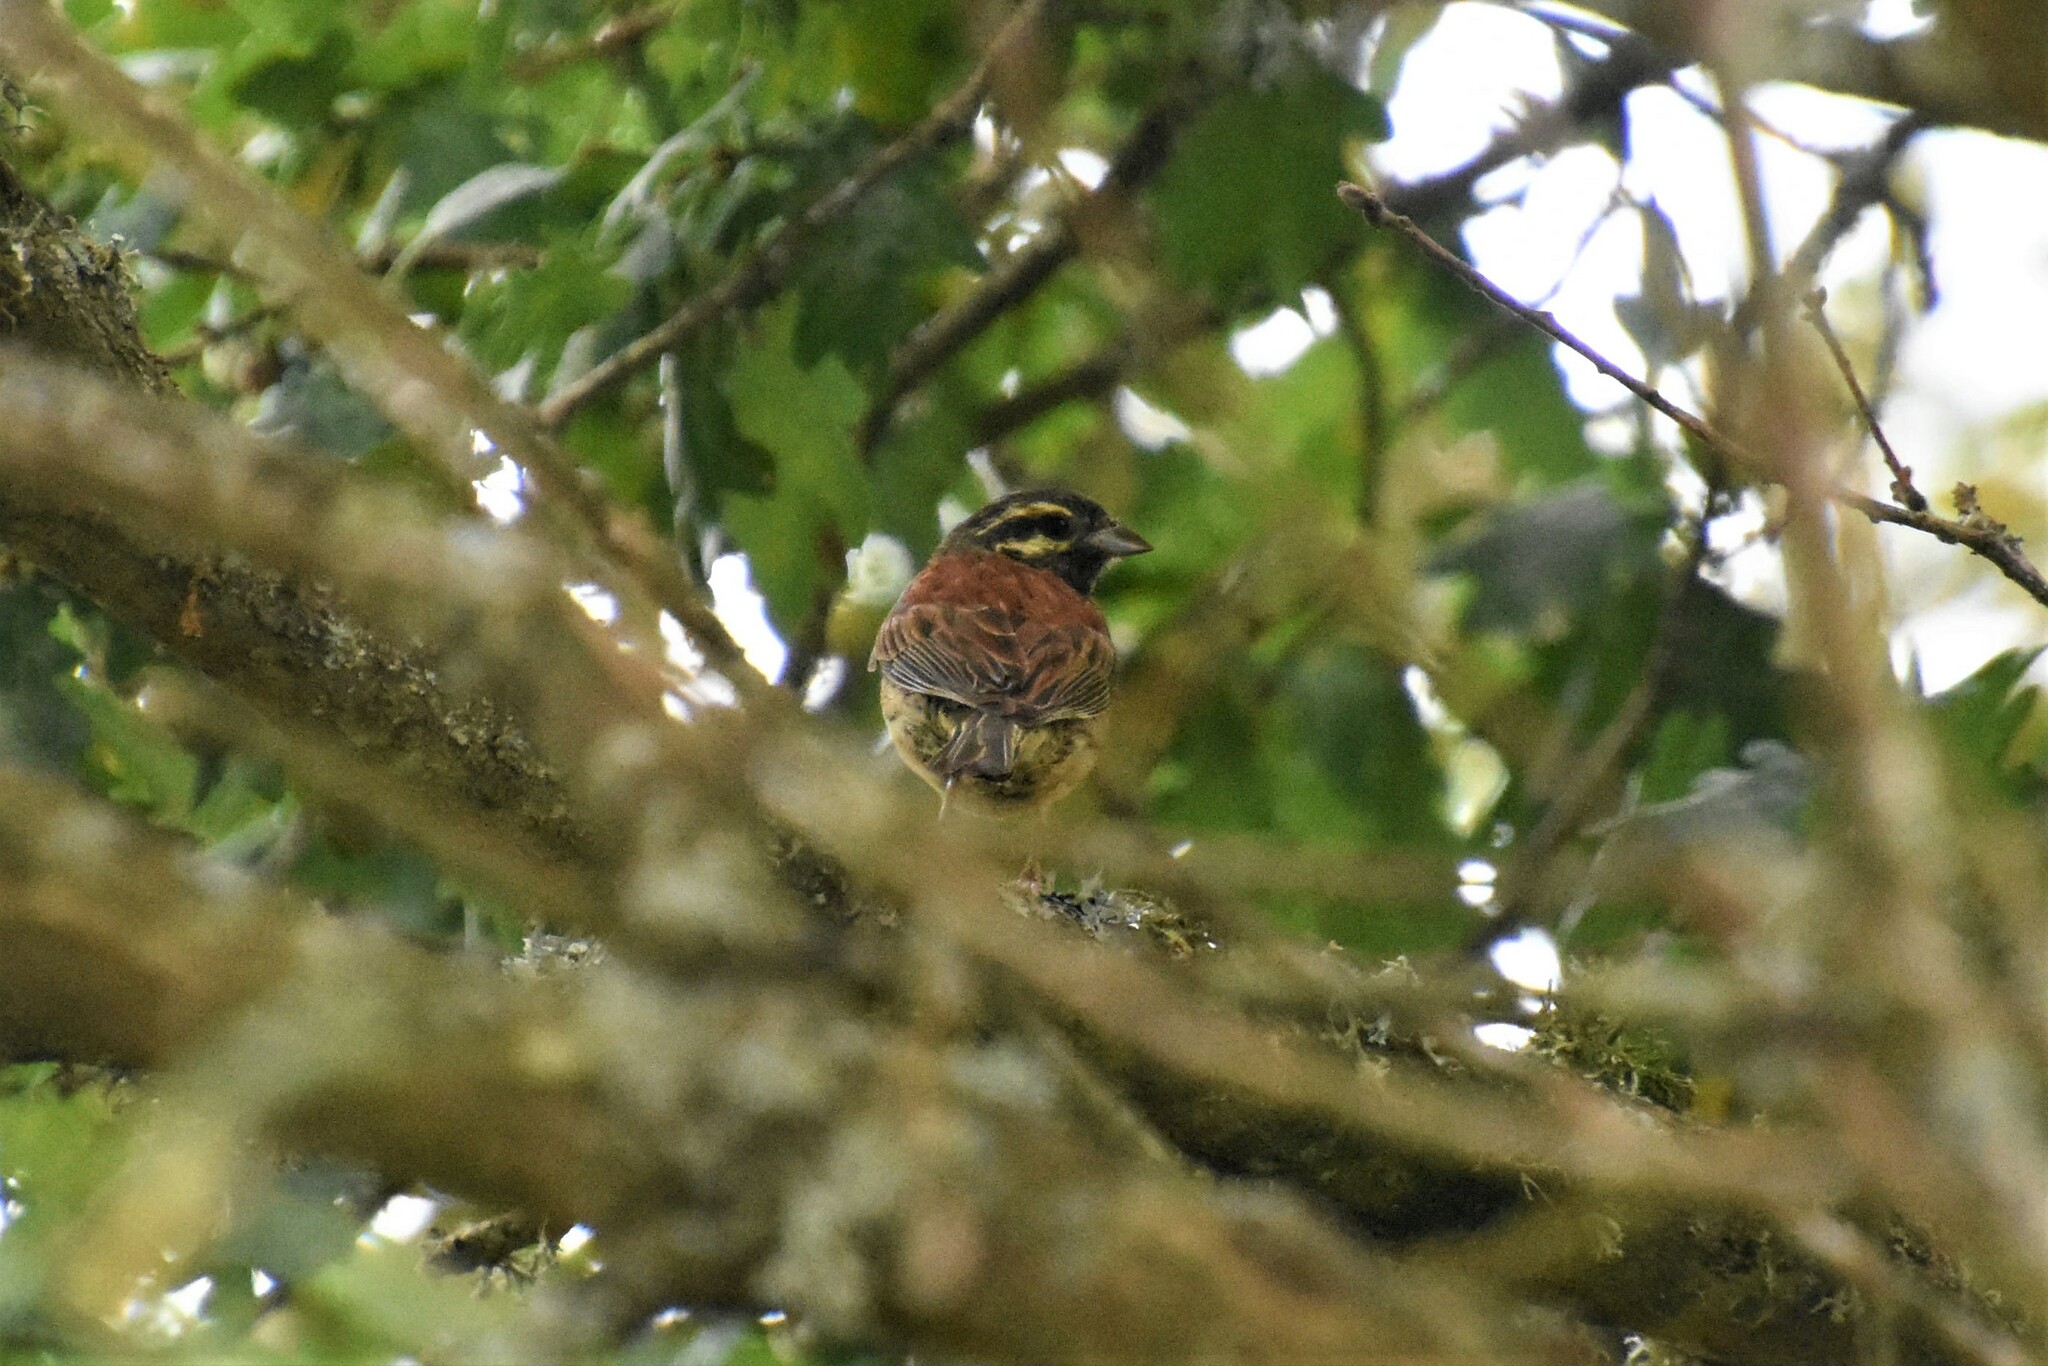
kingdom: Animalia
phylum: Chordata
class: Aves
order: Passeriformes
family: Emberizidae
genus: Emberiza
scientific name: Emberiza cirlus
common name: Cirl bunting
